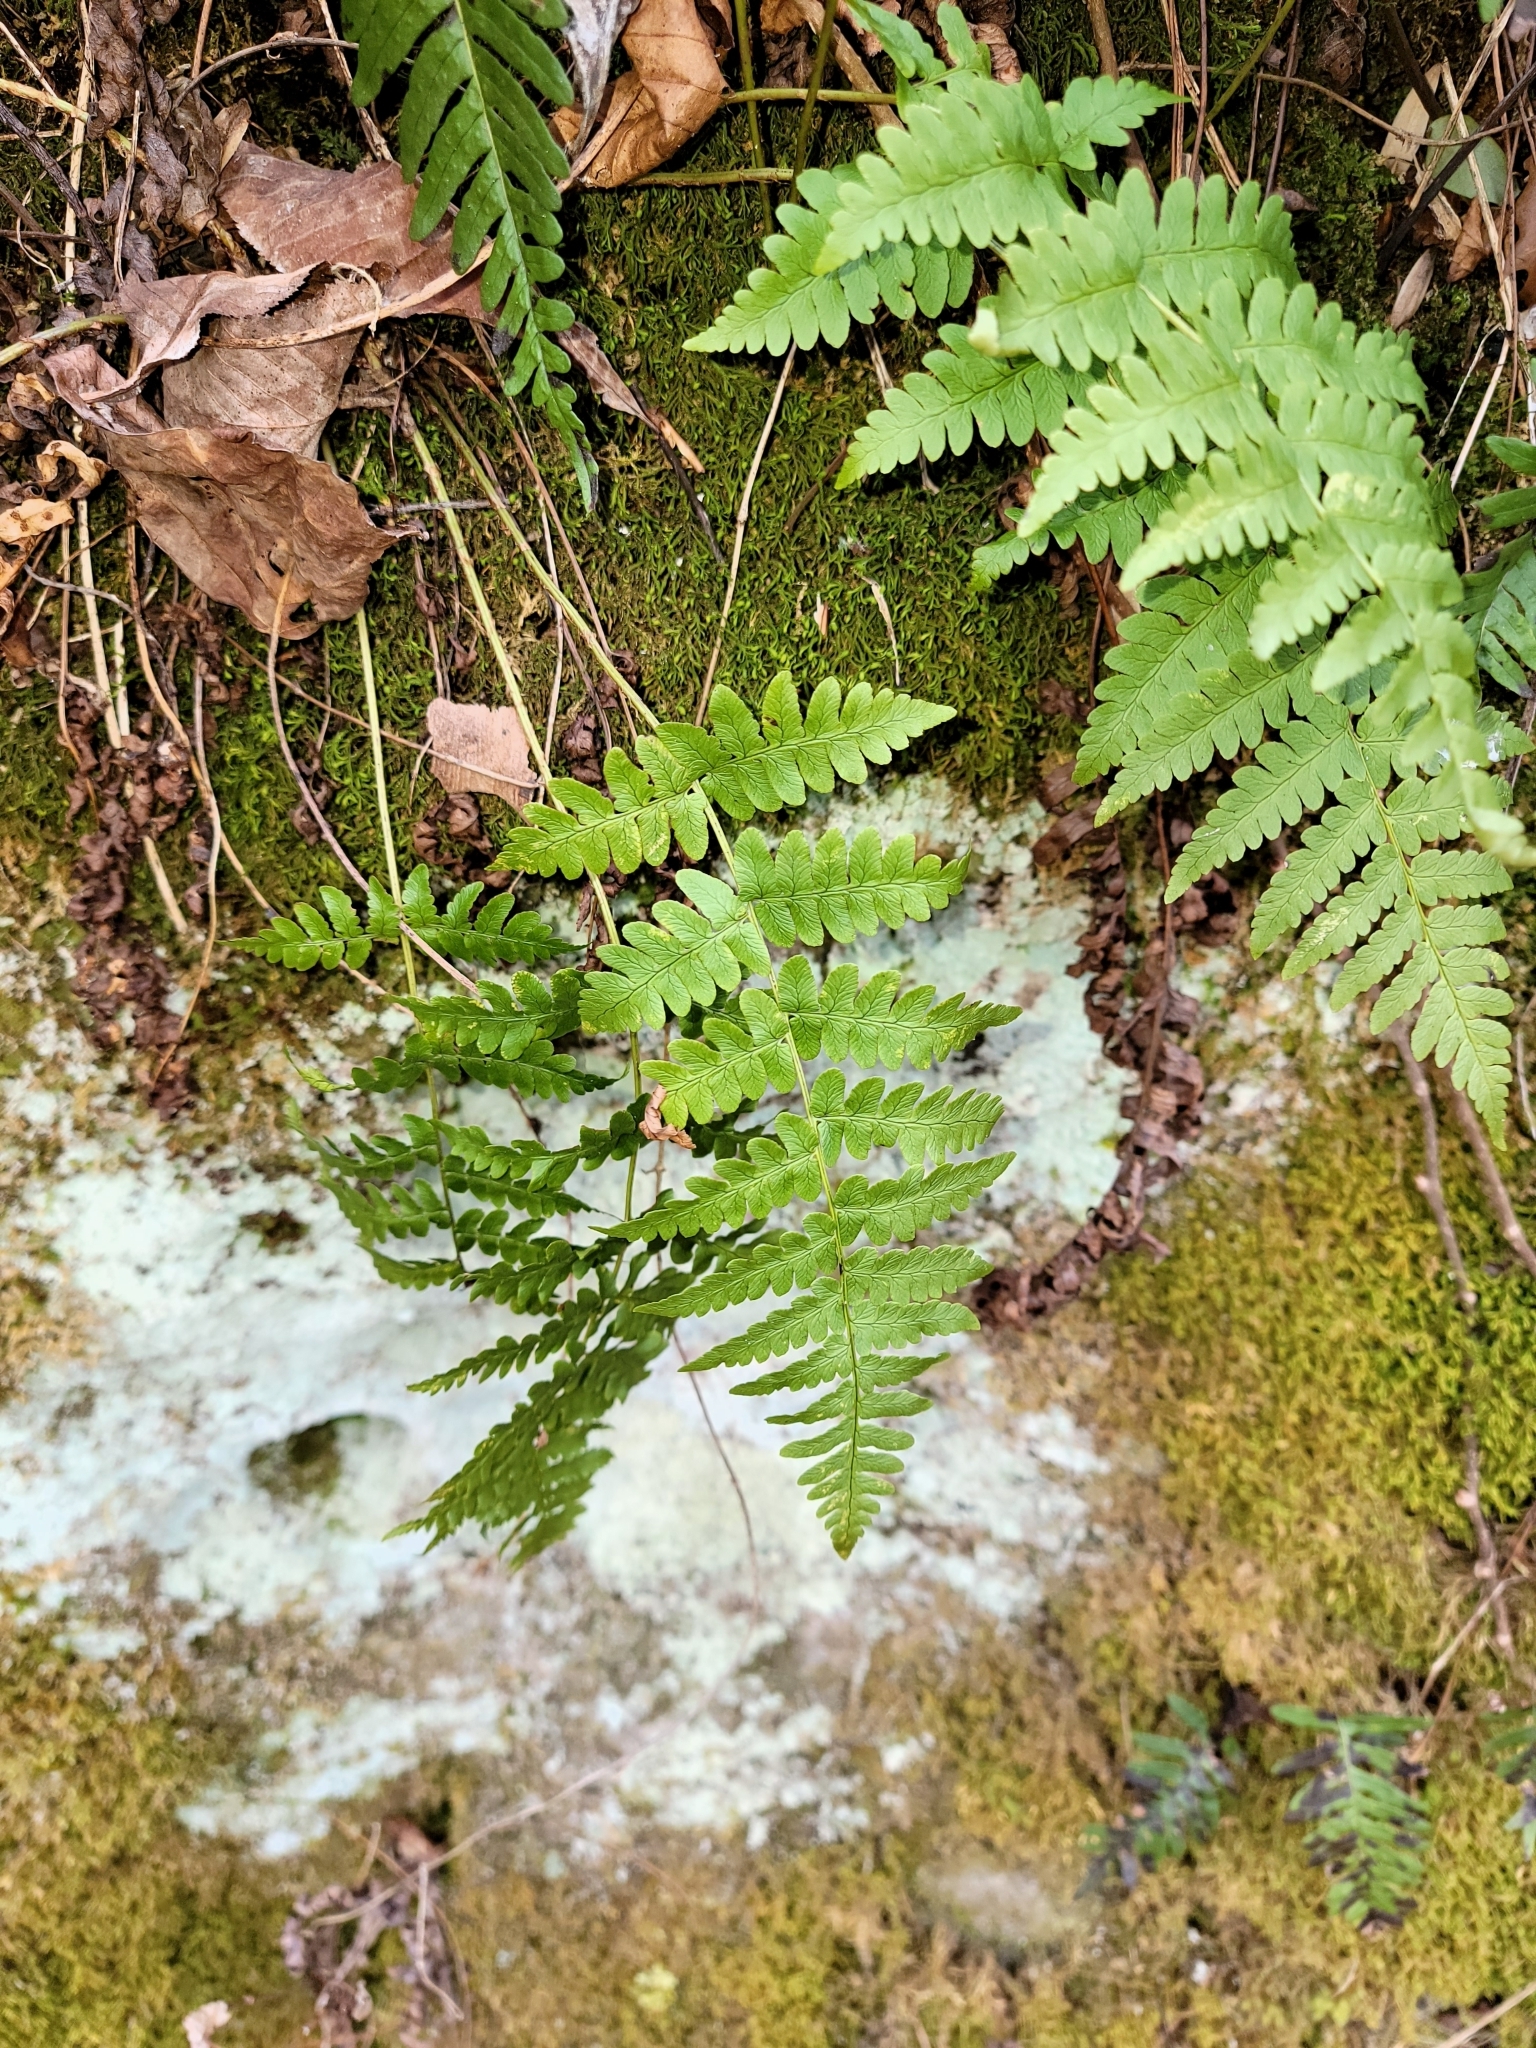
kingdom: Plantae
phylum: Tracheophyta
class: Polypodiopsida
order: Polypodiales
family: Dryopteridaceae
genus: Dryopteris
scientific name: Dryopteris marginalis
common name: Marginal wood fern
